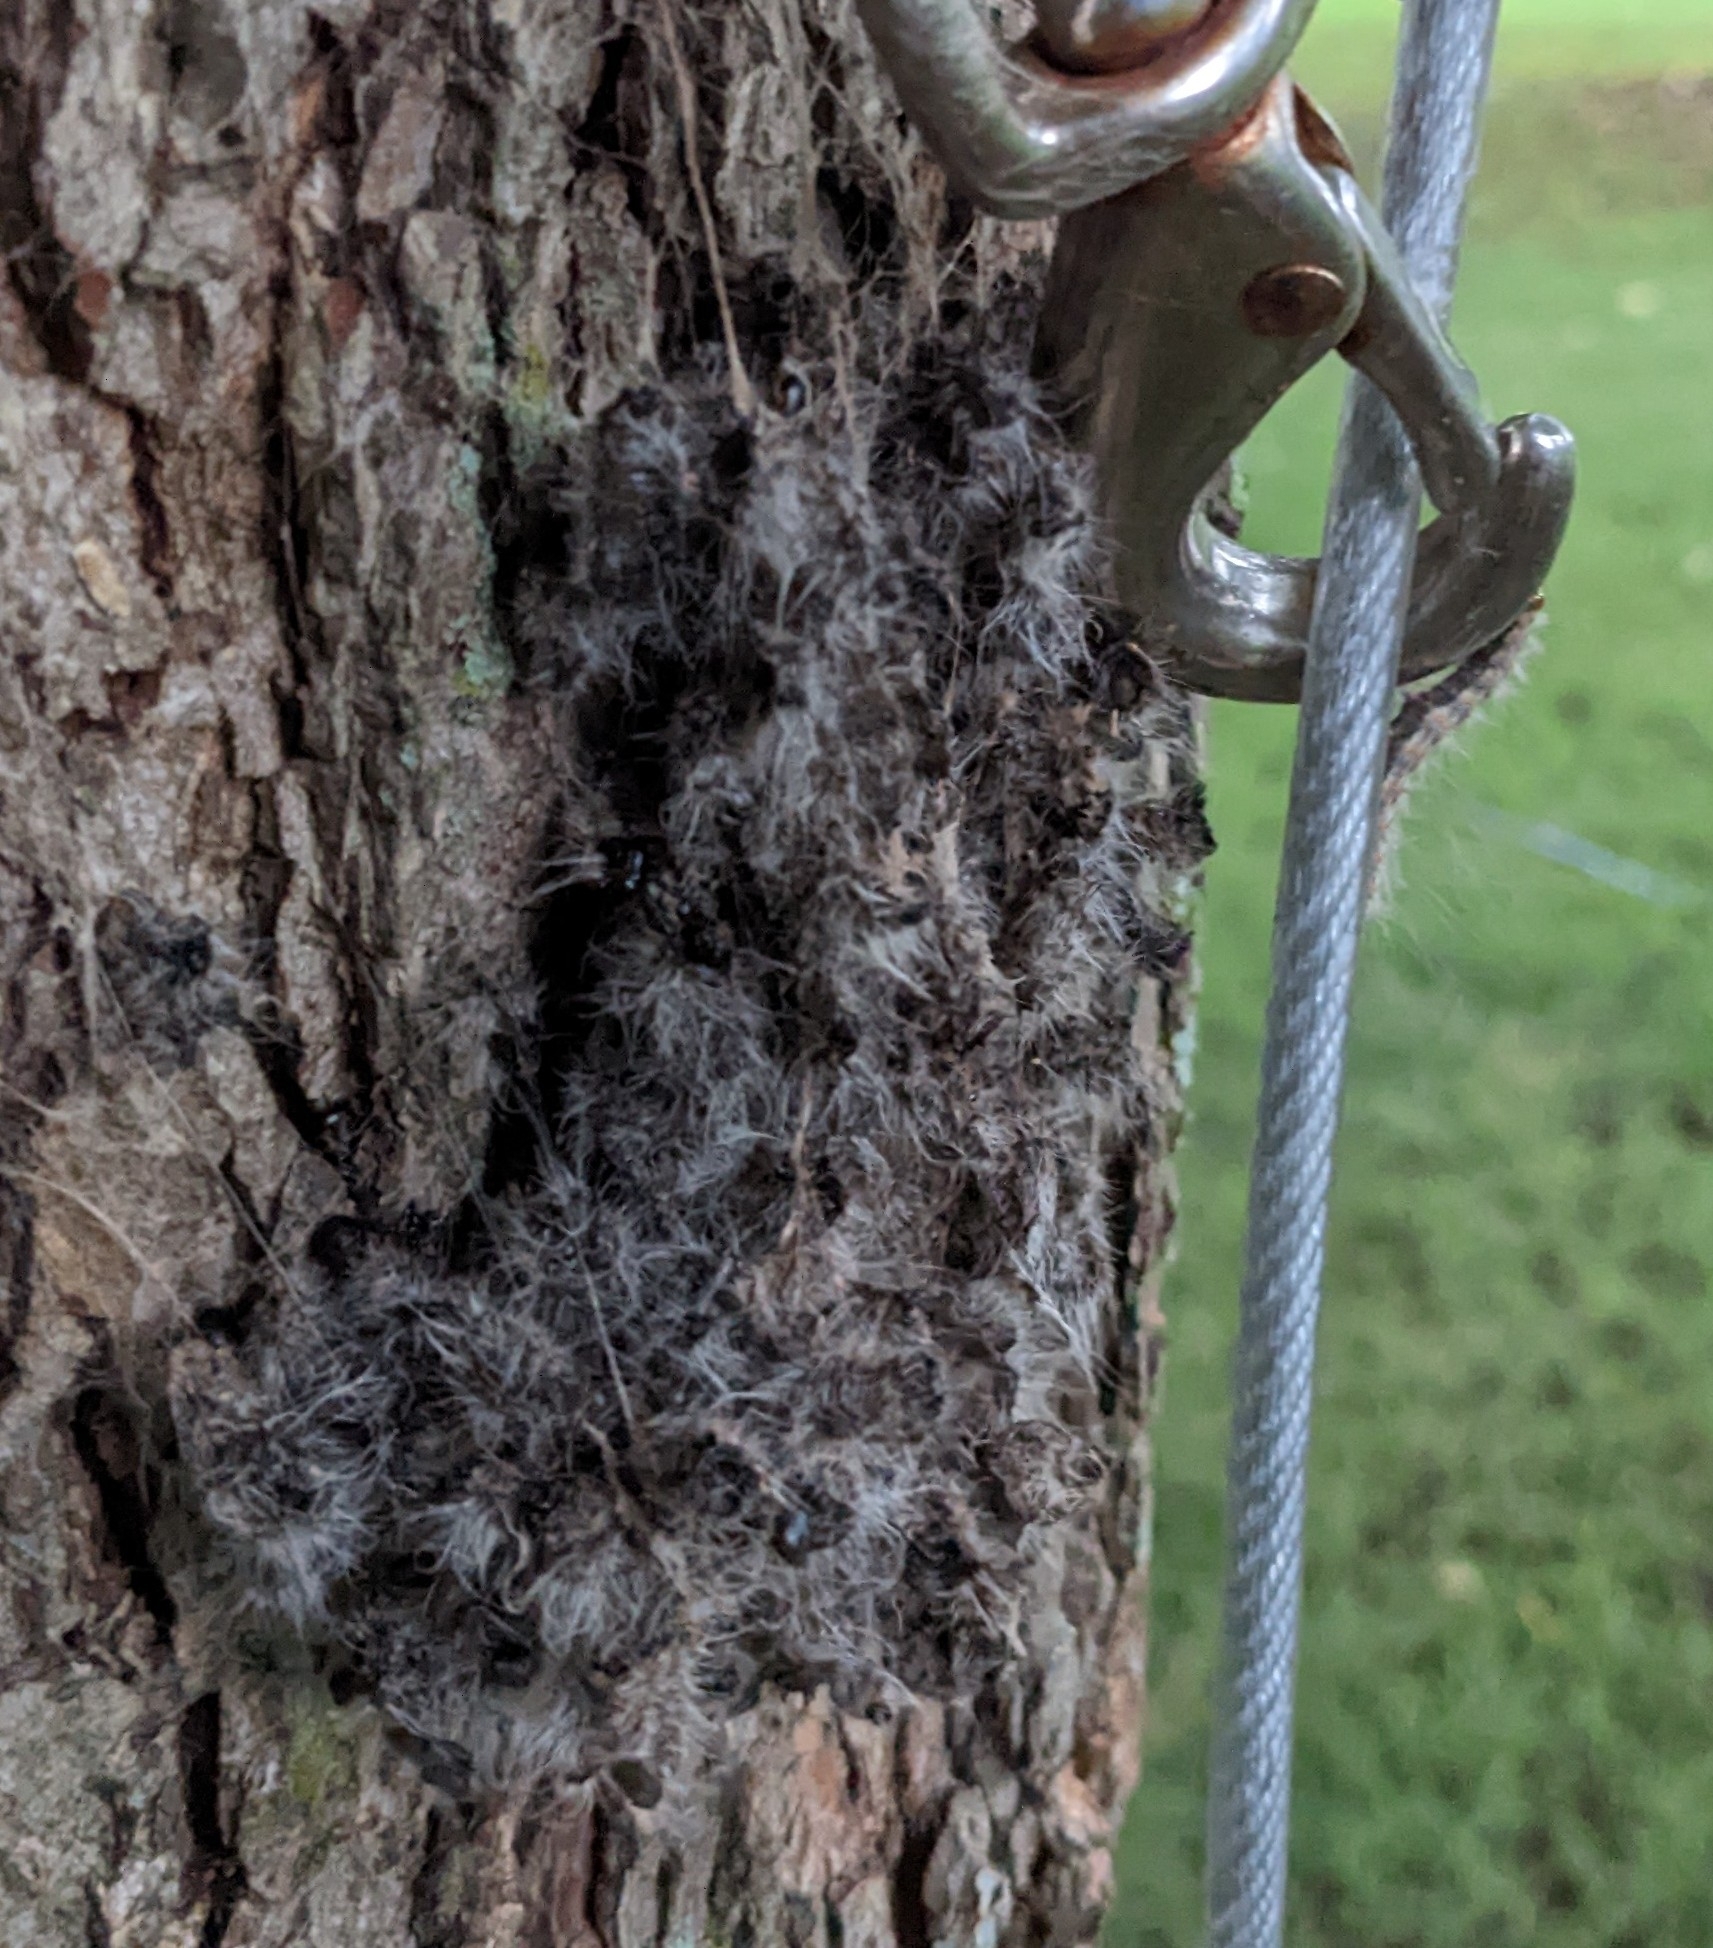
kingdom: Animalia
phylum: Arthropoda
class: Insecta
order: Lepidoptera
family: Notodontidae
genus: Datana
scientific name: Datana integerrima
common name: Walnut caterpillar
